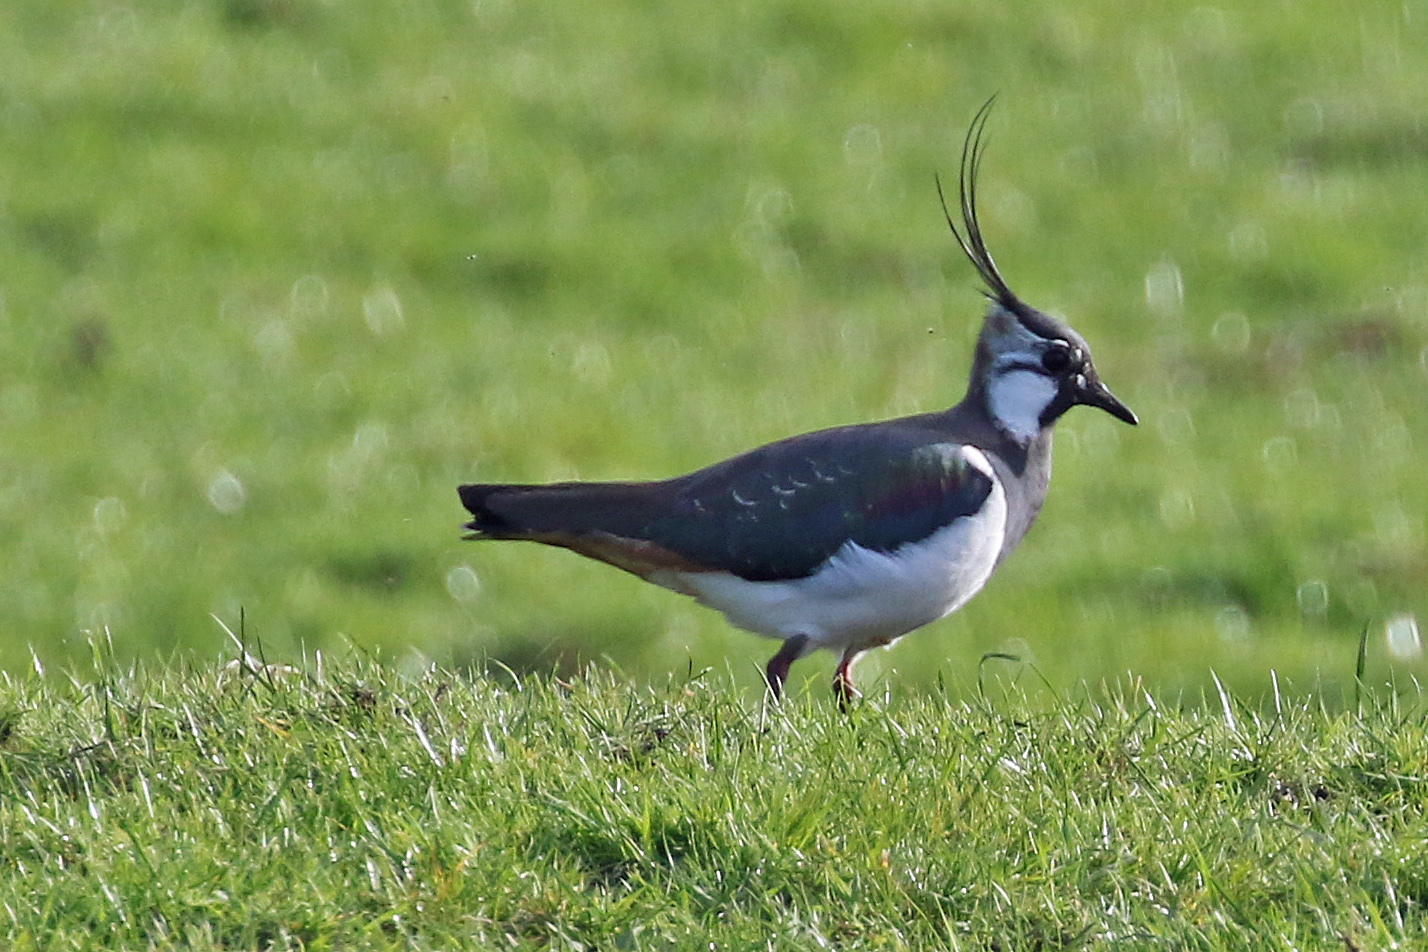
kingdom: Animalia
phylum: Chordata
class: Aves
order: Charadriiformes
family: Charadriidae
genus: Vanellus
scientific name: Vanellus vanellus
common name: Northern lapwing
